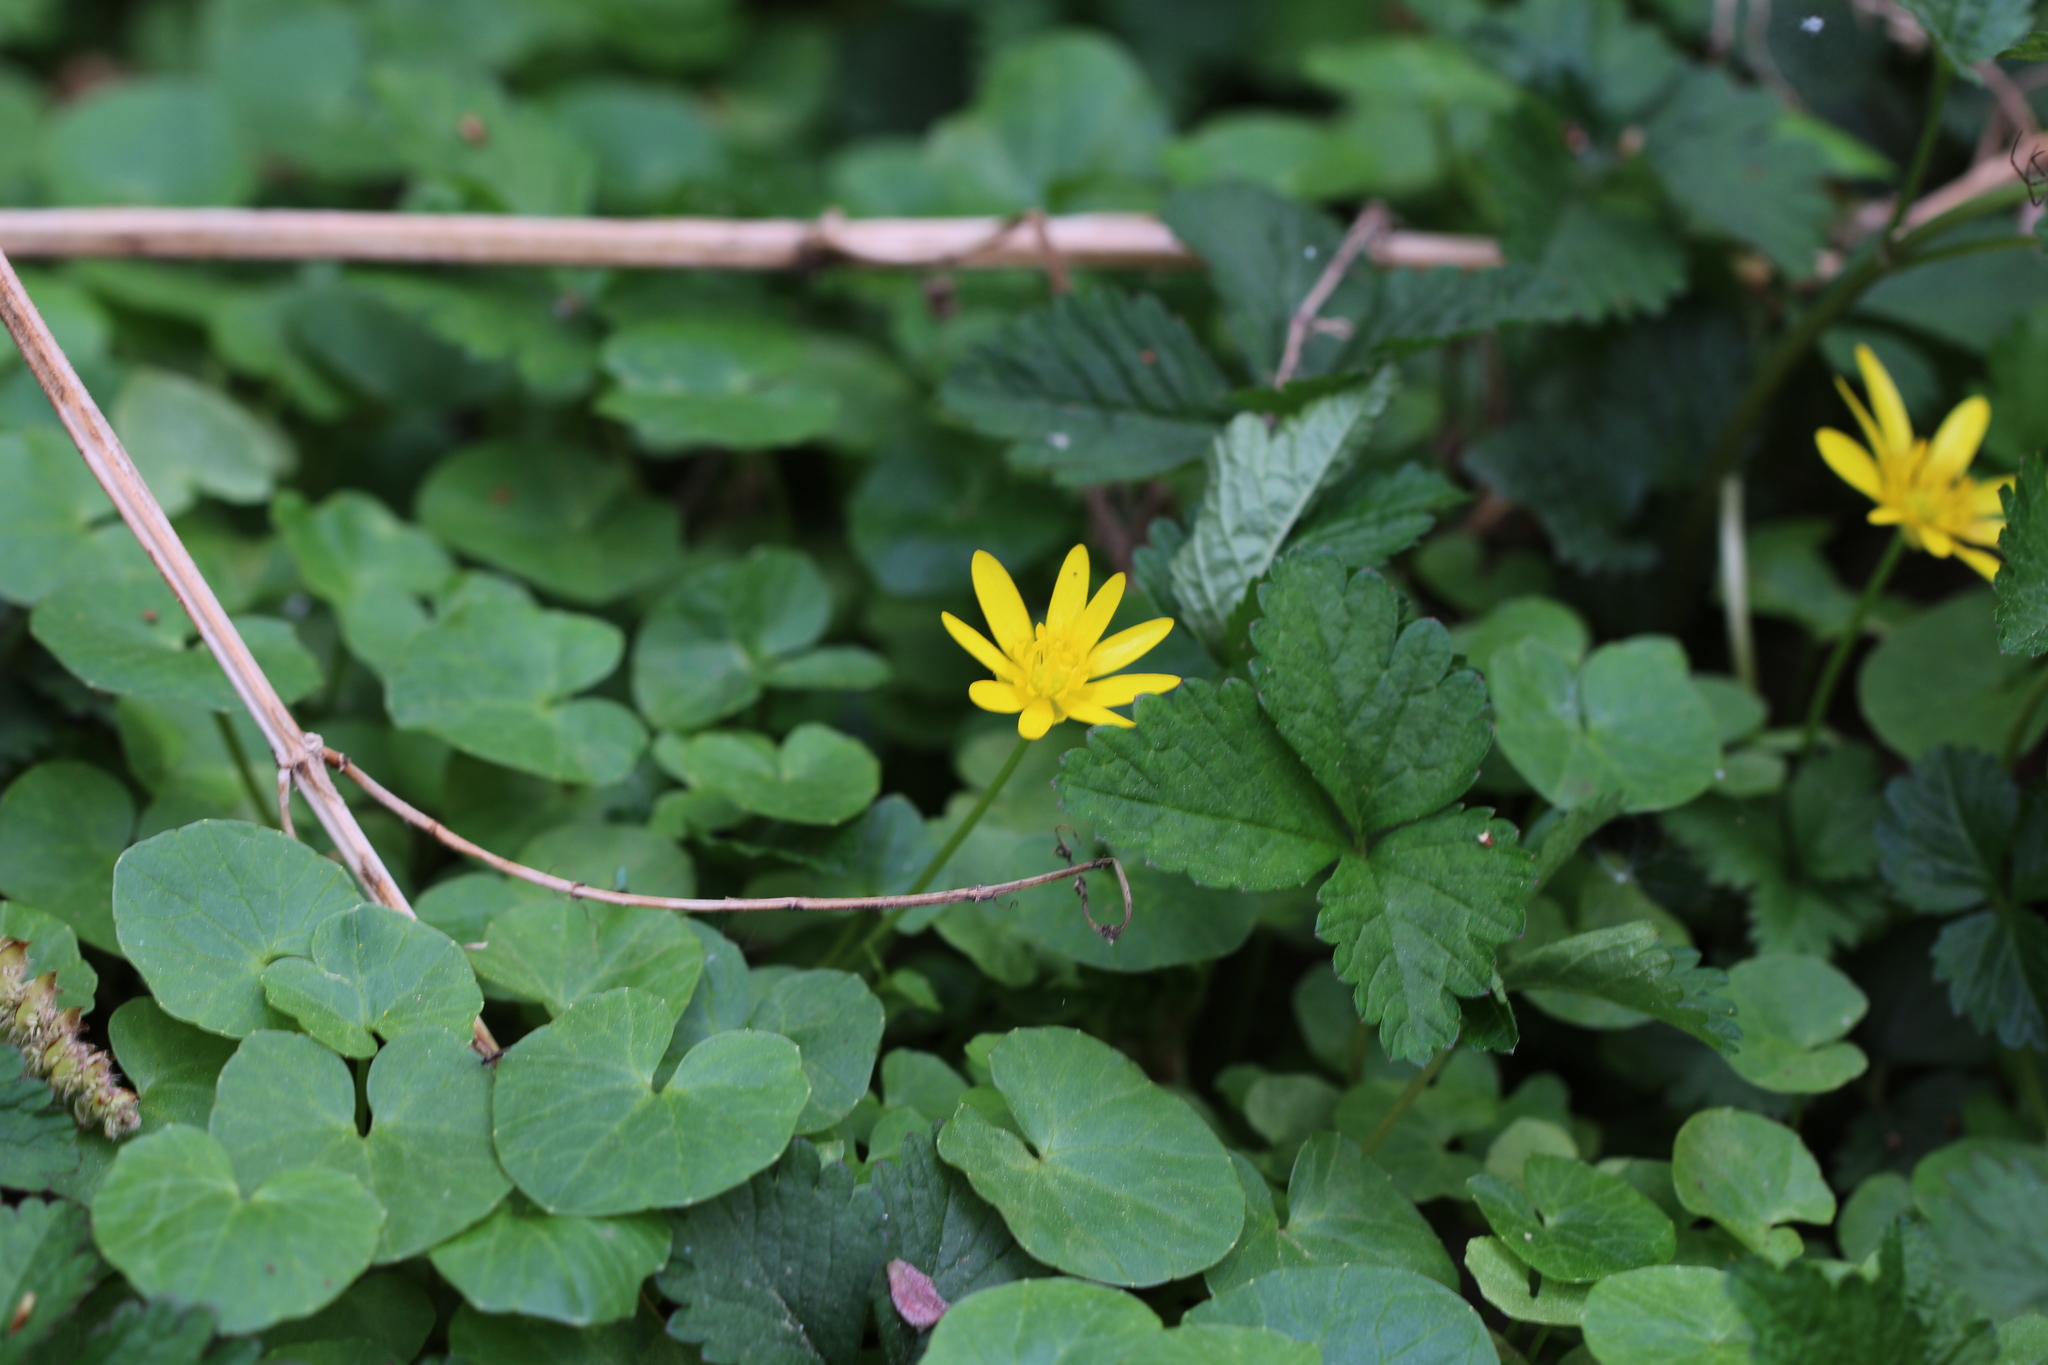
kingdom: Plantae
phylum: Tracheophyta
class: Magnoliopsida
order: Ranunculales
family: Ranunculaceae
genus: Ficaria
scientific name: Ficaria verna
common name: Lesser celandine
